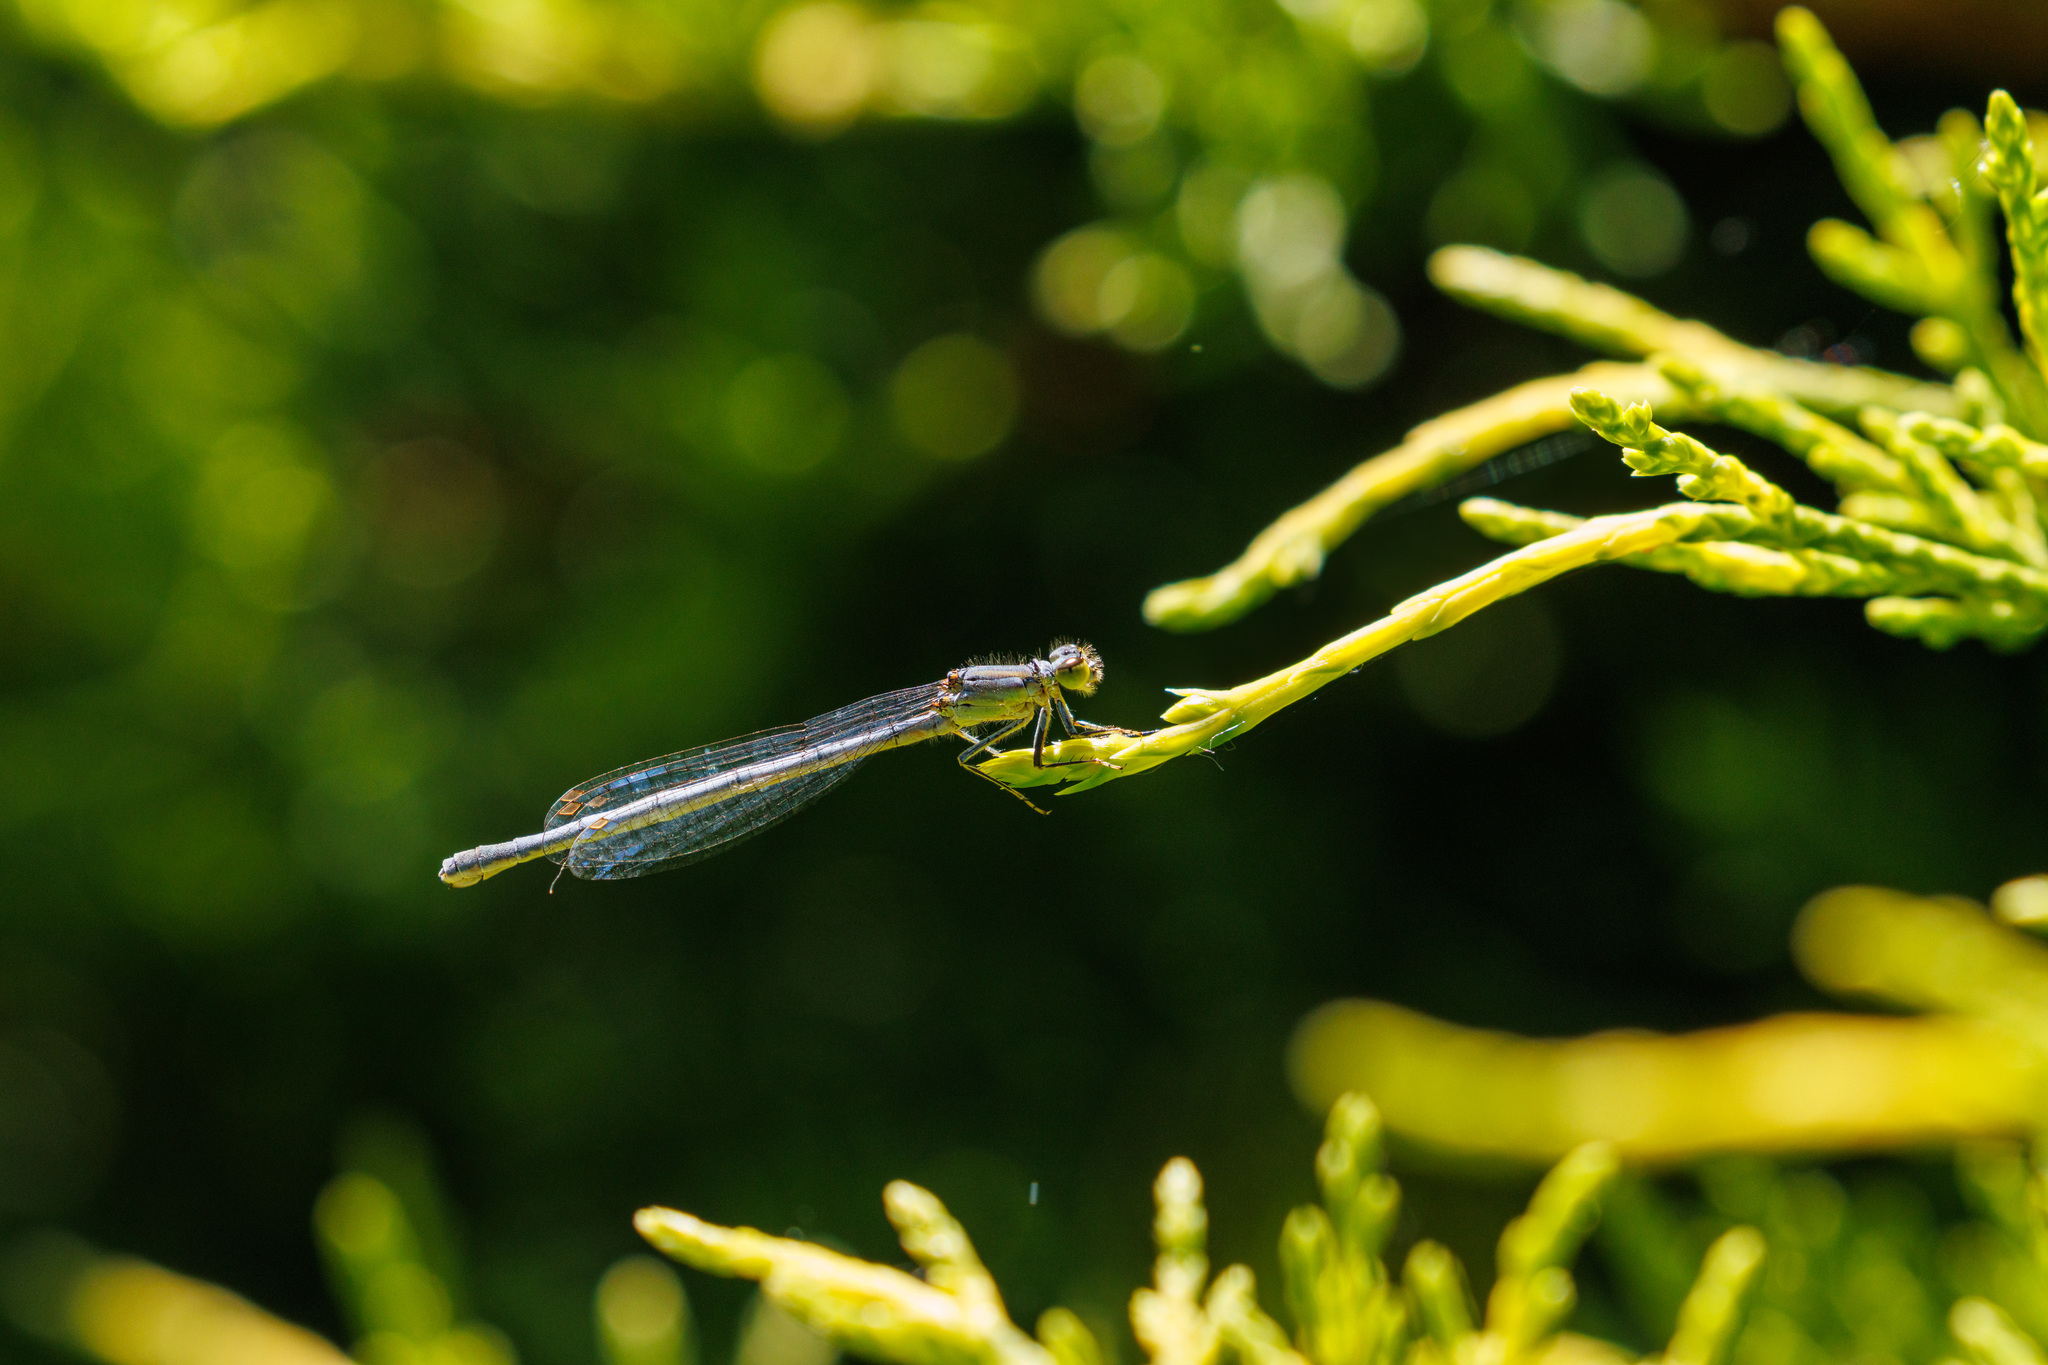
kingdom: Animalia
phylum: Arthropoda
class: Insecta
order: Odonata
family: Coenagrionidae
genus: Ischnura
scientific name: Ischnura perparva
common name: Western forktail
